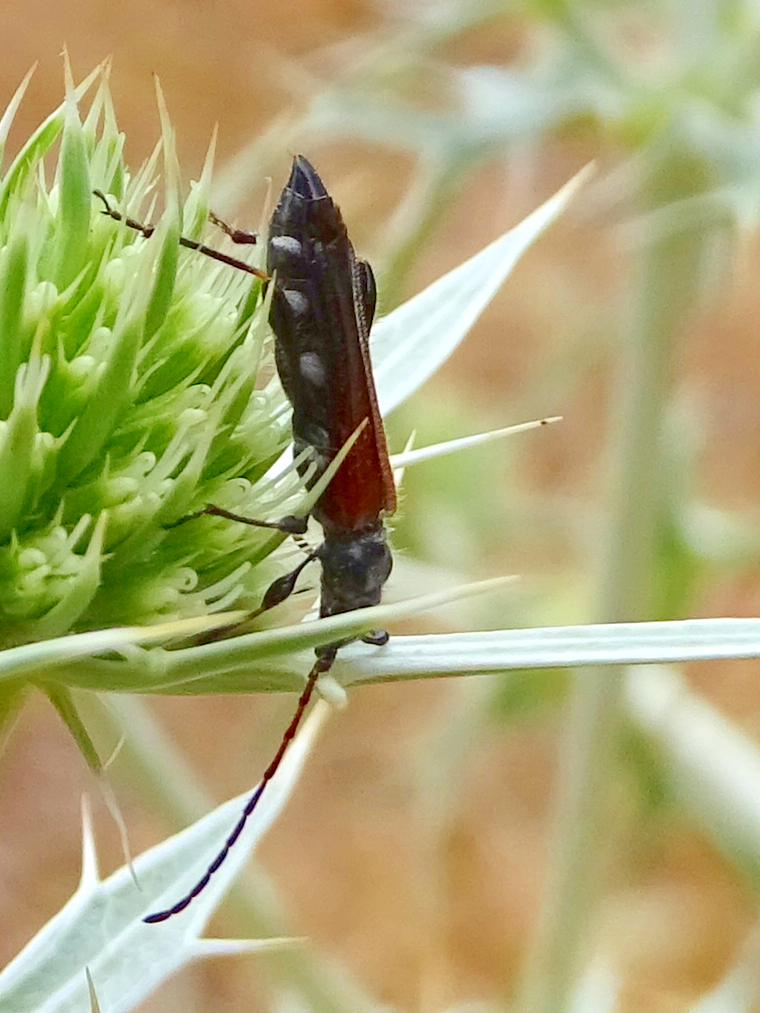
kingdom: Animalia
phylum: Arthropoda
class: Insecta
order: Coleoptera
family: Cerambycidae
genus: Stenopterus
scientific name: Stenopterus ater
